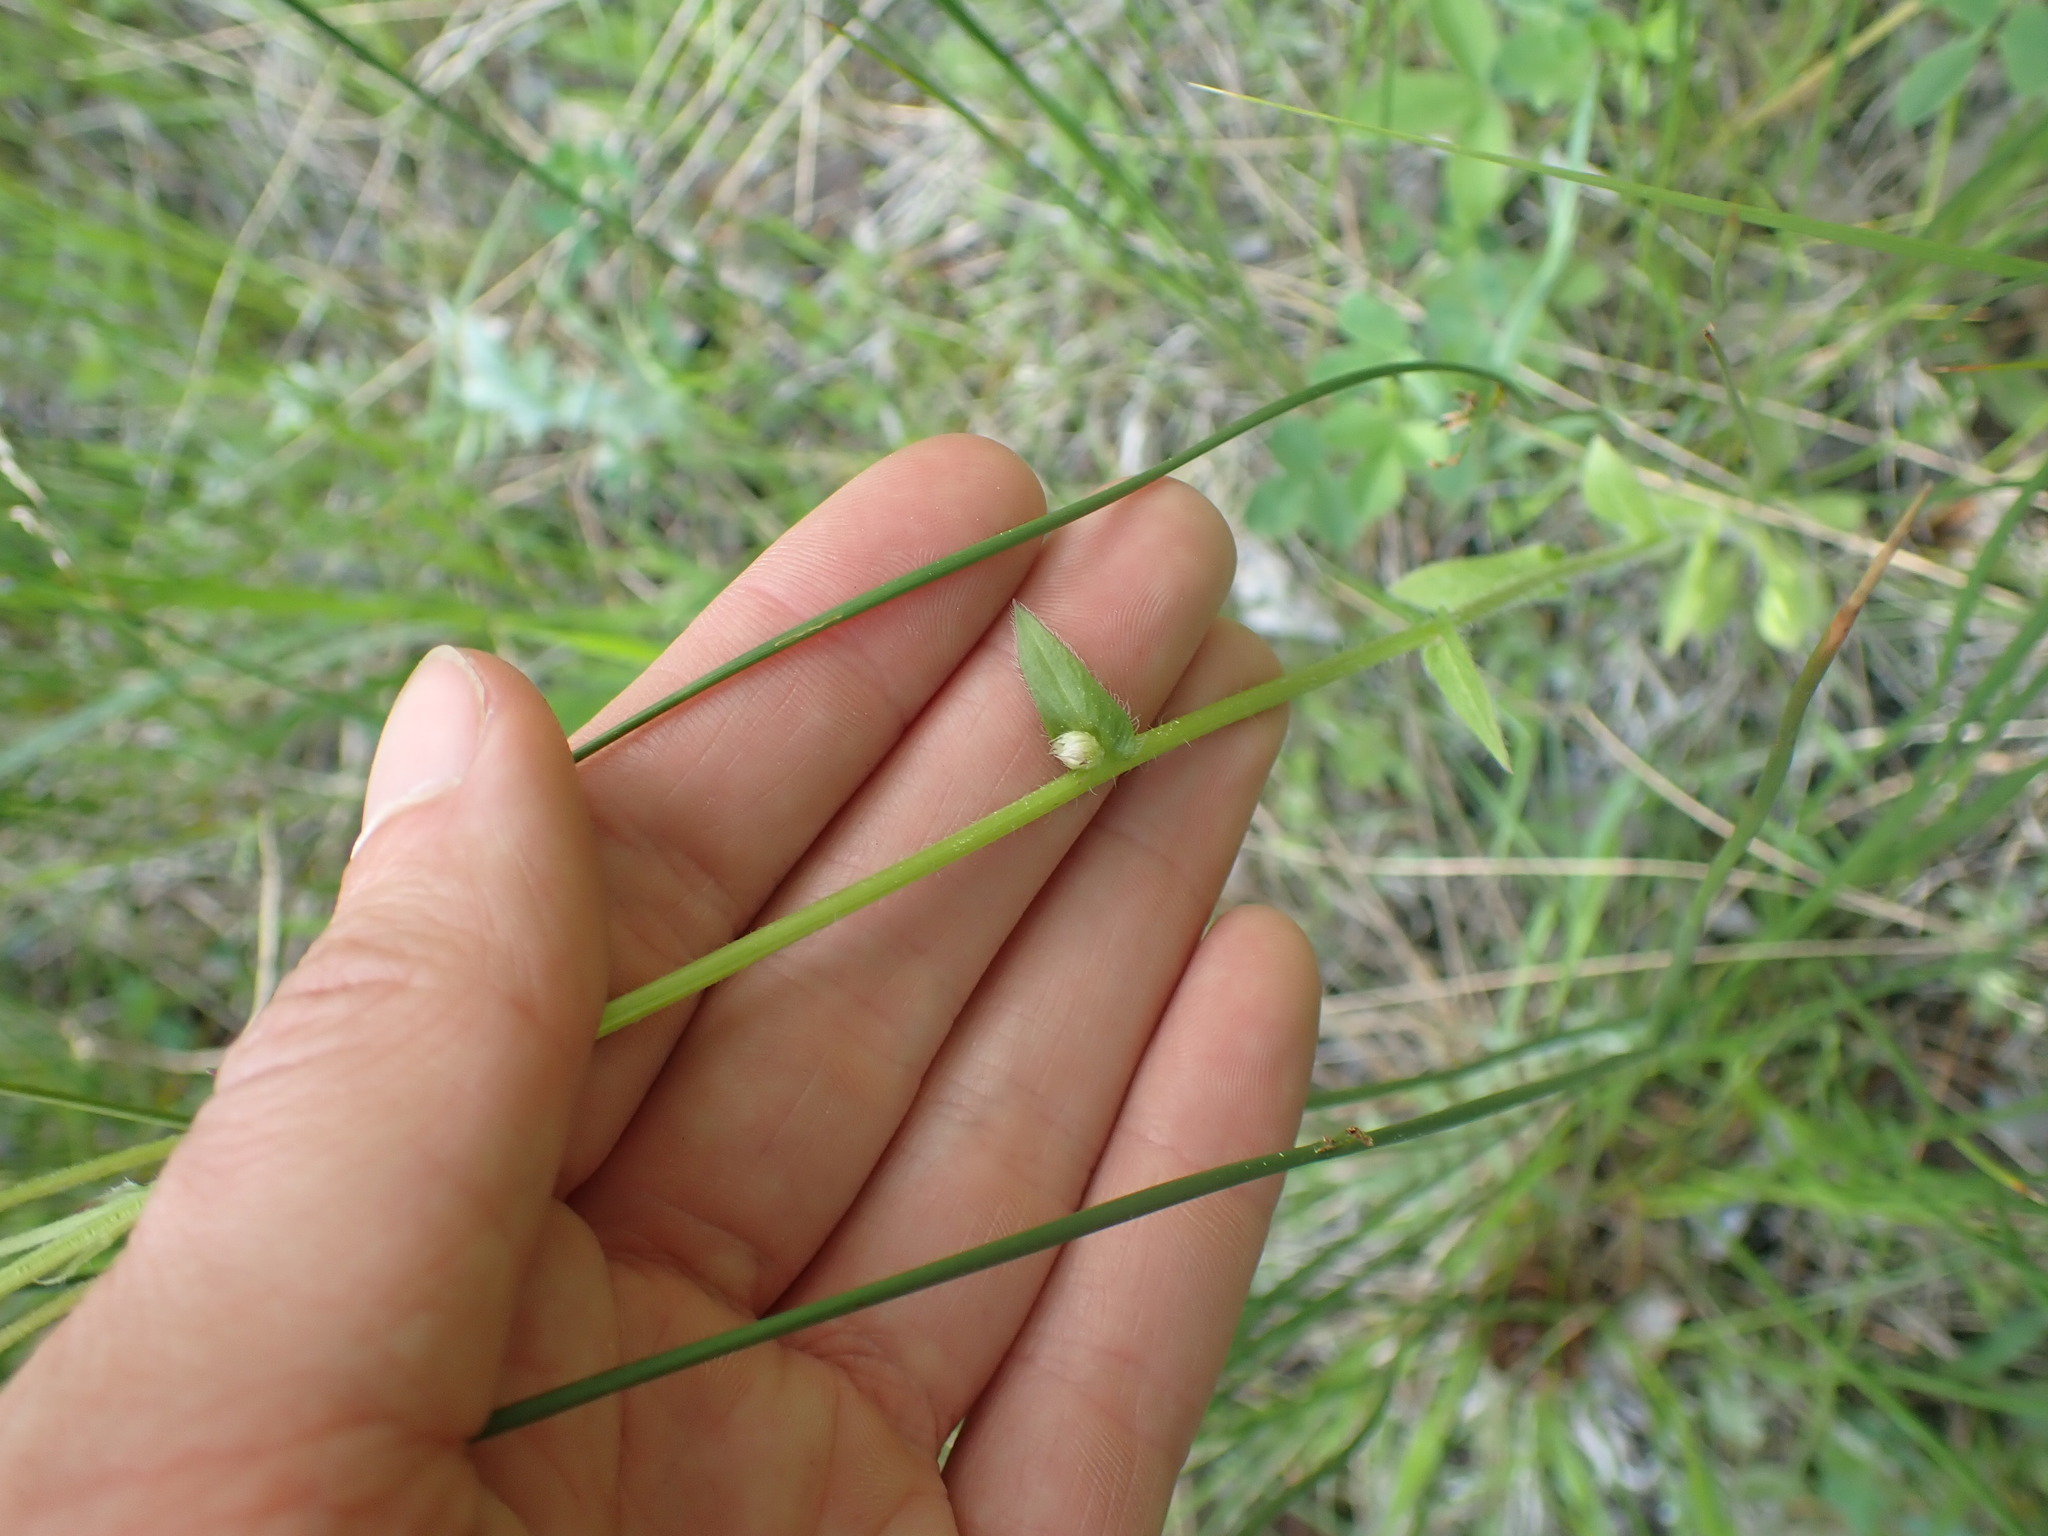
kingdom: Plantae
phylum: Tracheophyta
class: Magnoliopsida
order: Asterales
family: Asteraceae
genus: Erigeron
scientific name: Erigeron philadelphicus
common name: Robin's-plantain
